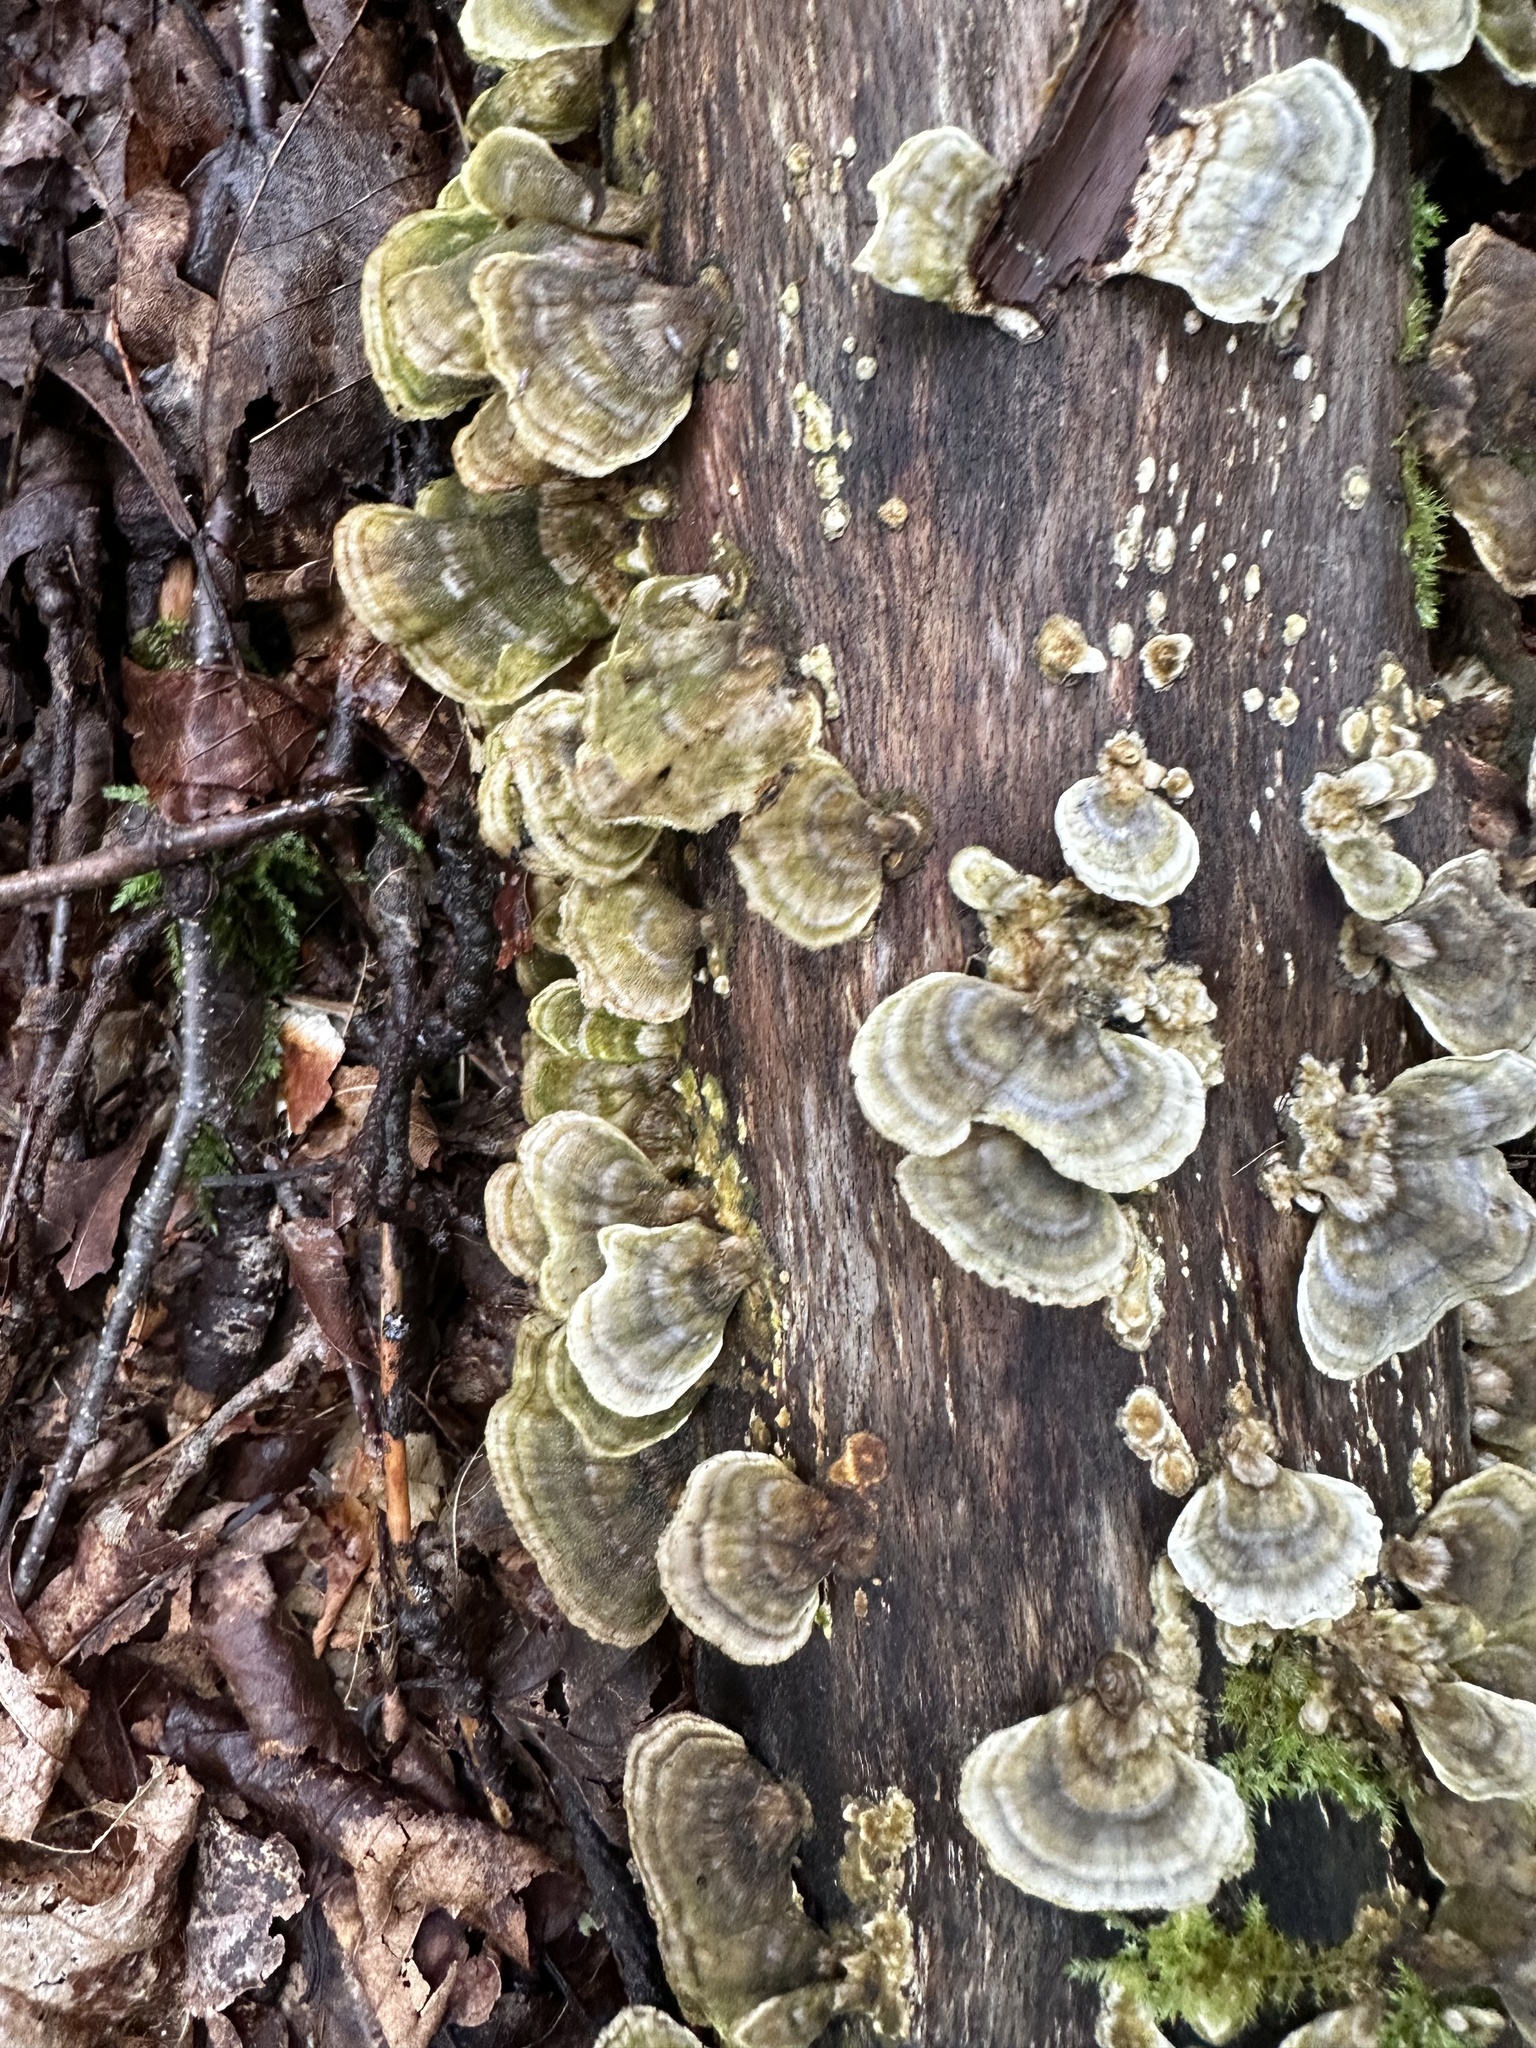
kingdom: Fungi
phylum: Basidiomycota
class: Agaricomycetes
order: Polyporales
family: Polyporaceae
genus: Trametes
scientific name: Trametes versicolor
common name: Turkeytail
